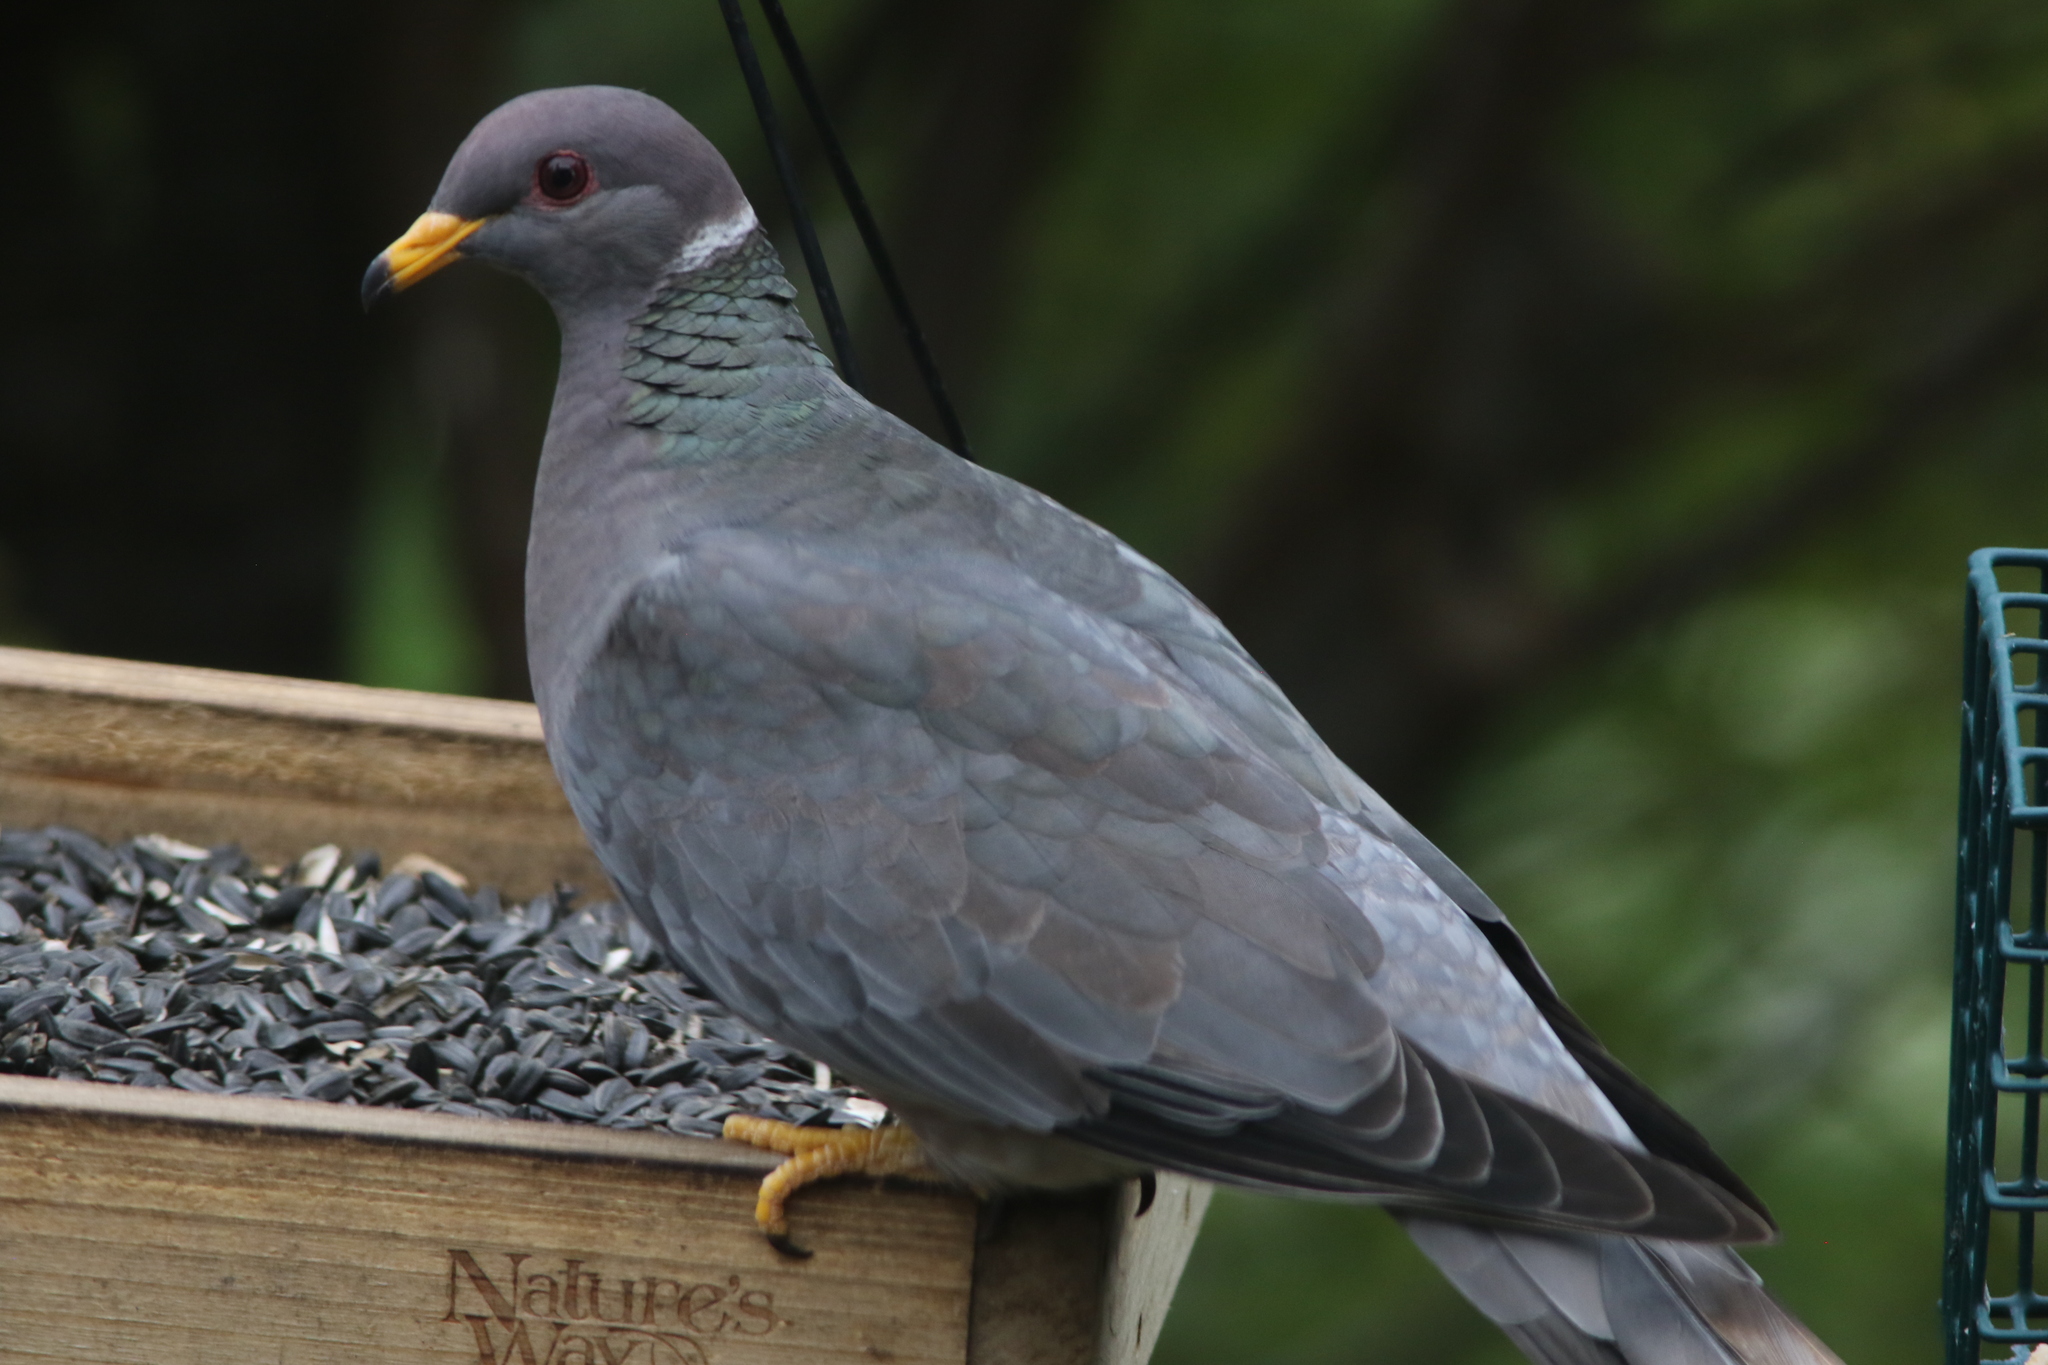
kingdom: Animalia
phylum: Chordata
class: Aves
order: Columbiformes
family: Columbidae
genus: Patagioenas
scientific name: Patagioenas fasciata
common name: Band-tailed pigeon
